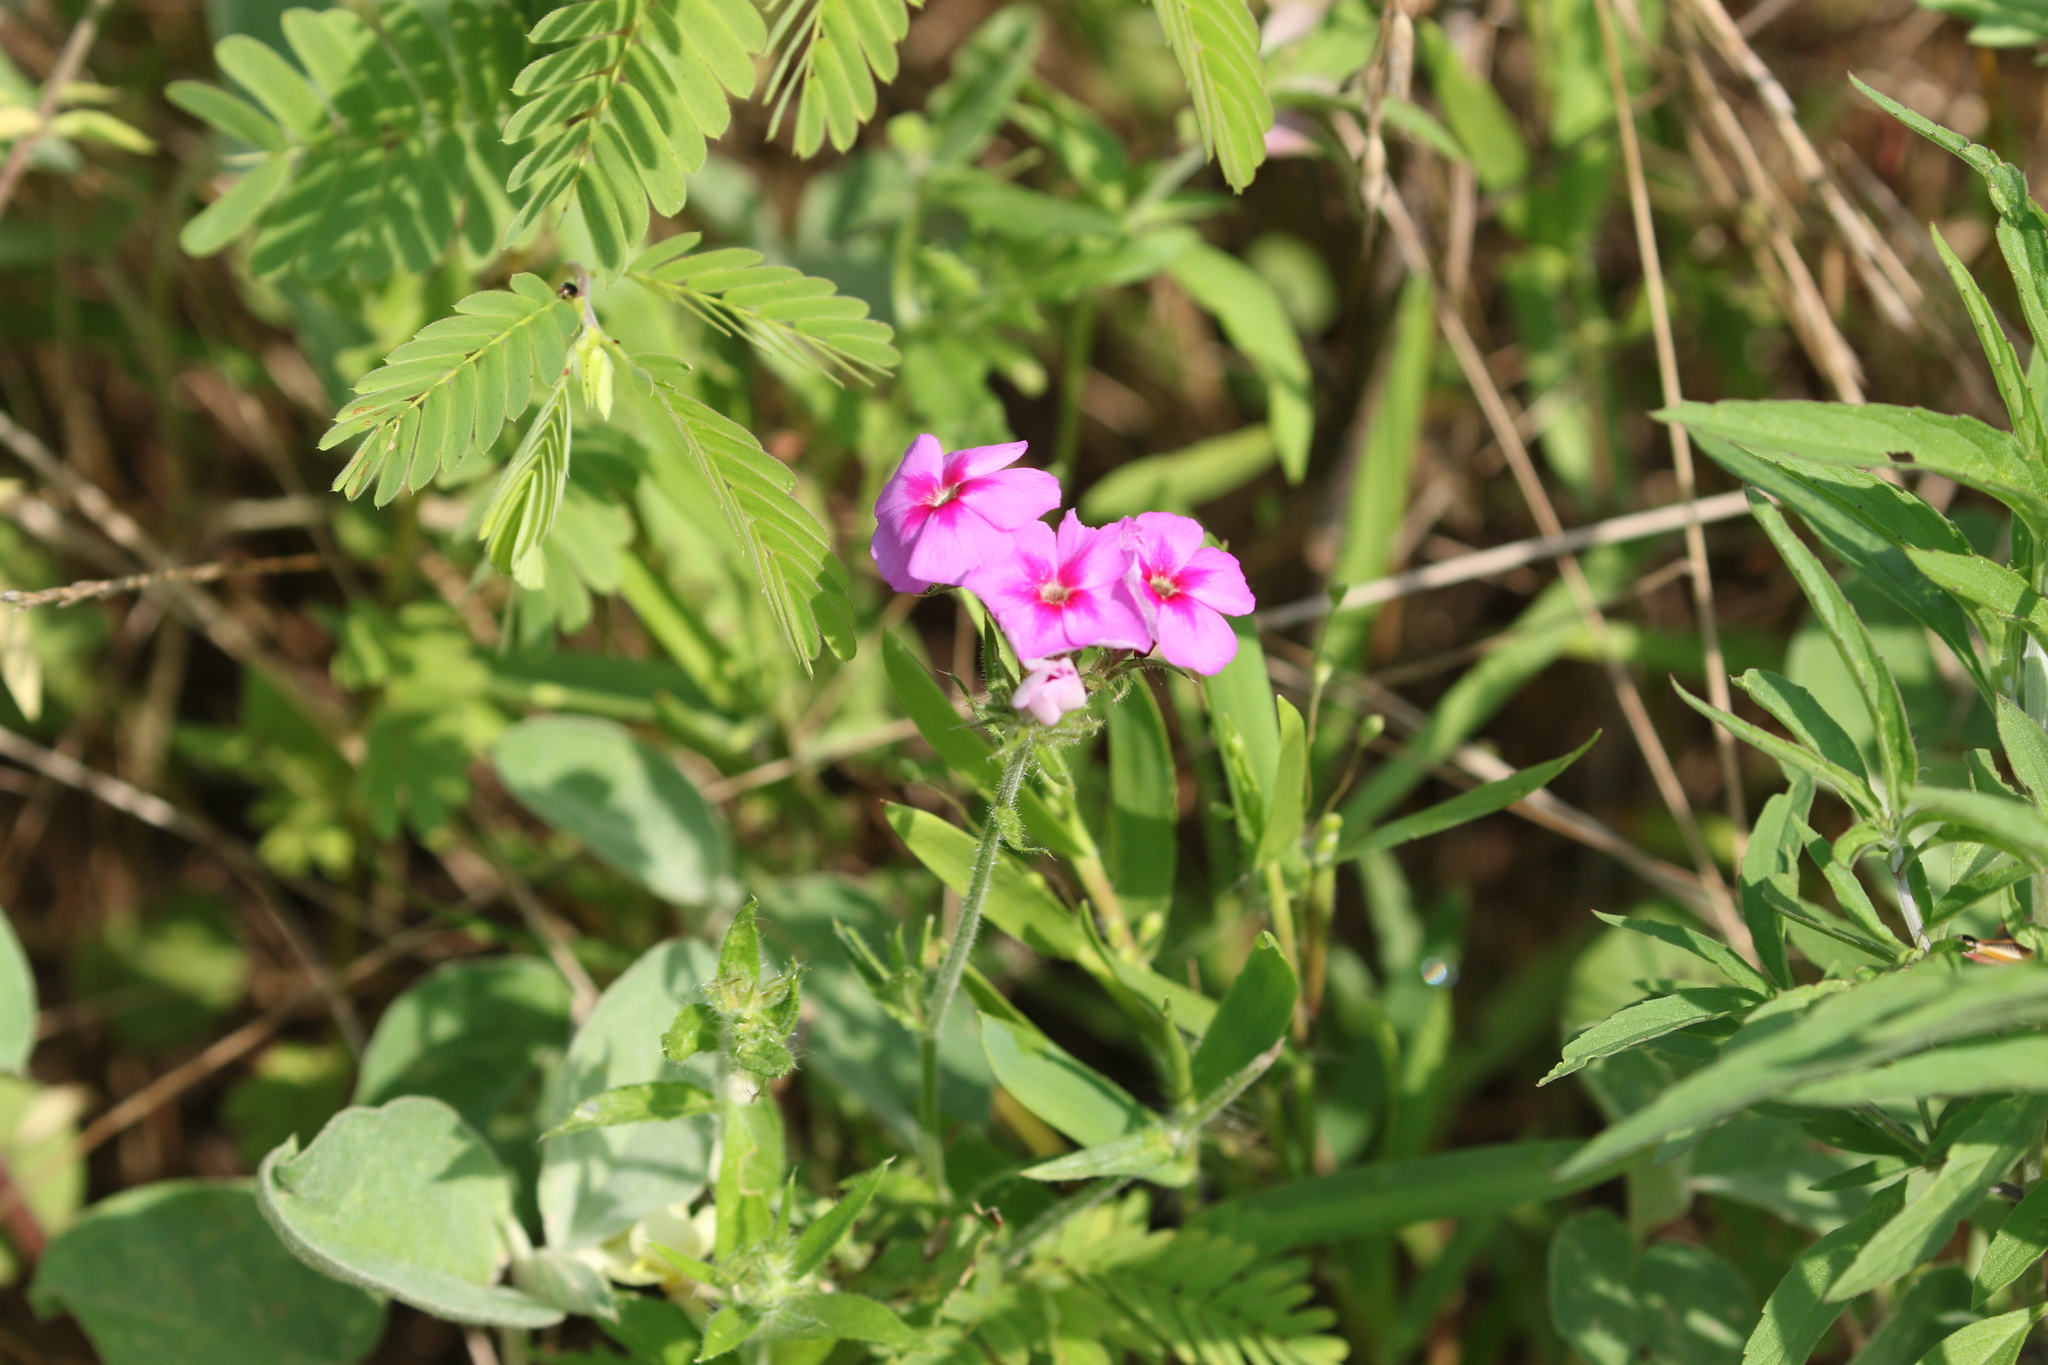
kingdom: Plantae
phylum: Tracheophyta
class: Magnoliopsida
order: Ericales
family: Polemoniaceae
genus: Phlox
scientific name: Phlox drummondii
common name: Drummond's phlox
